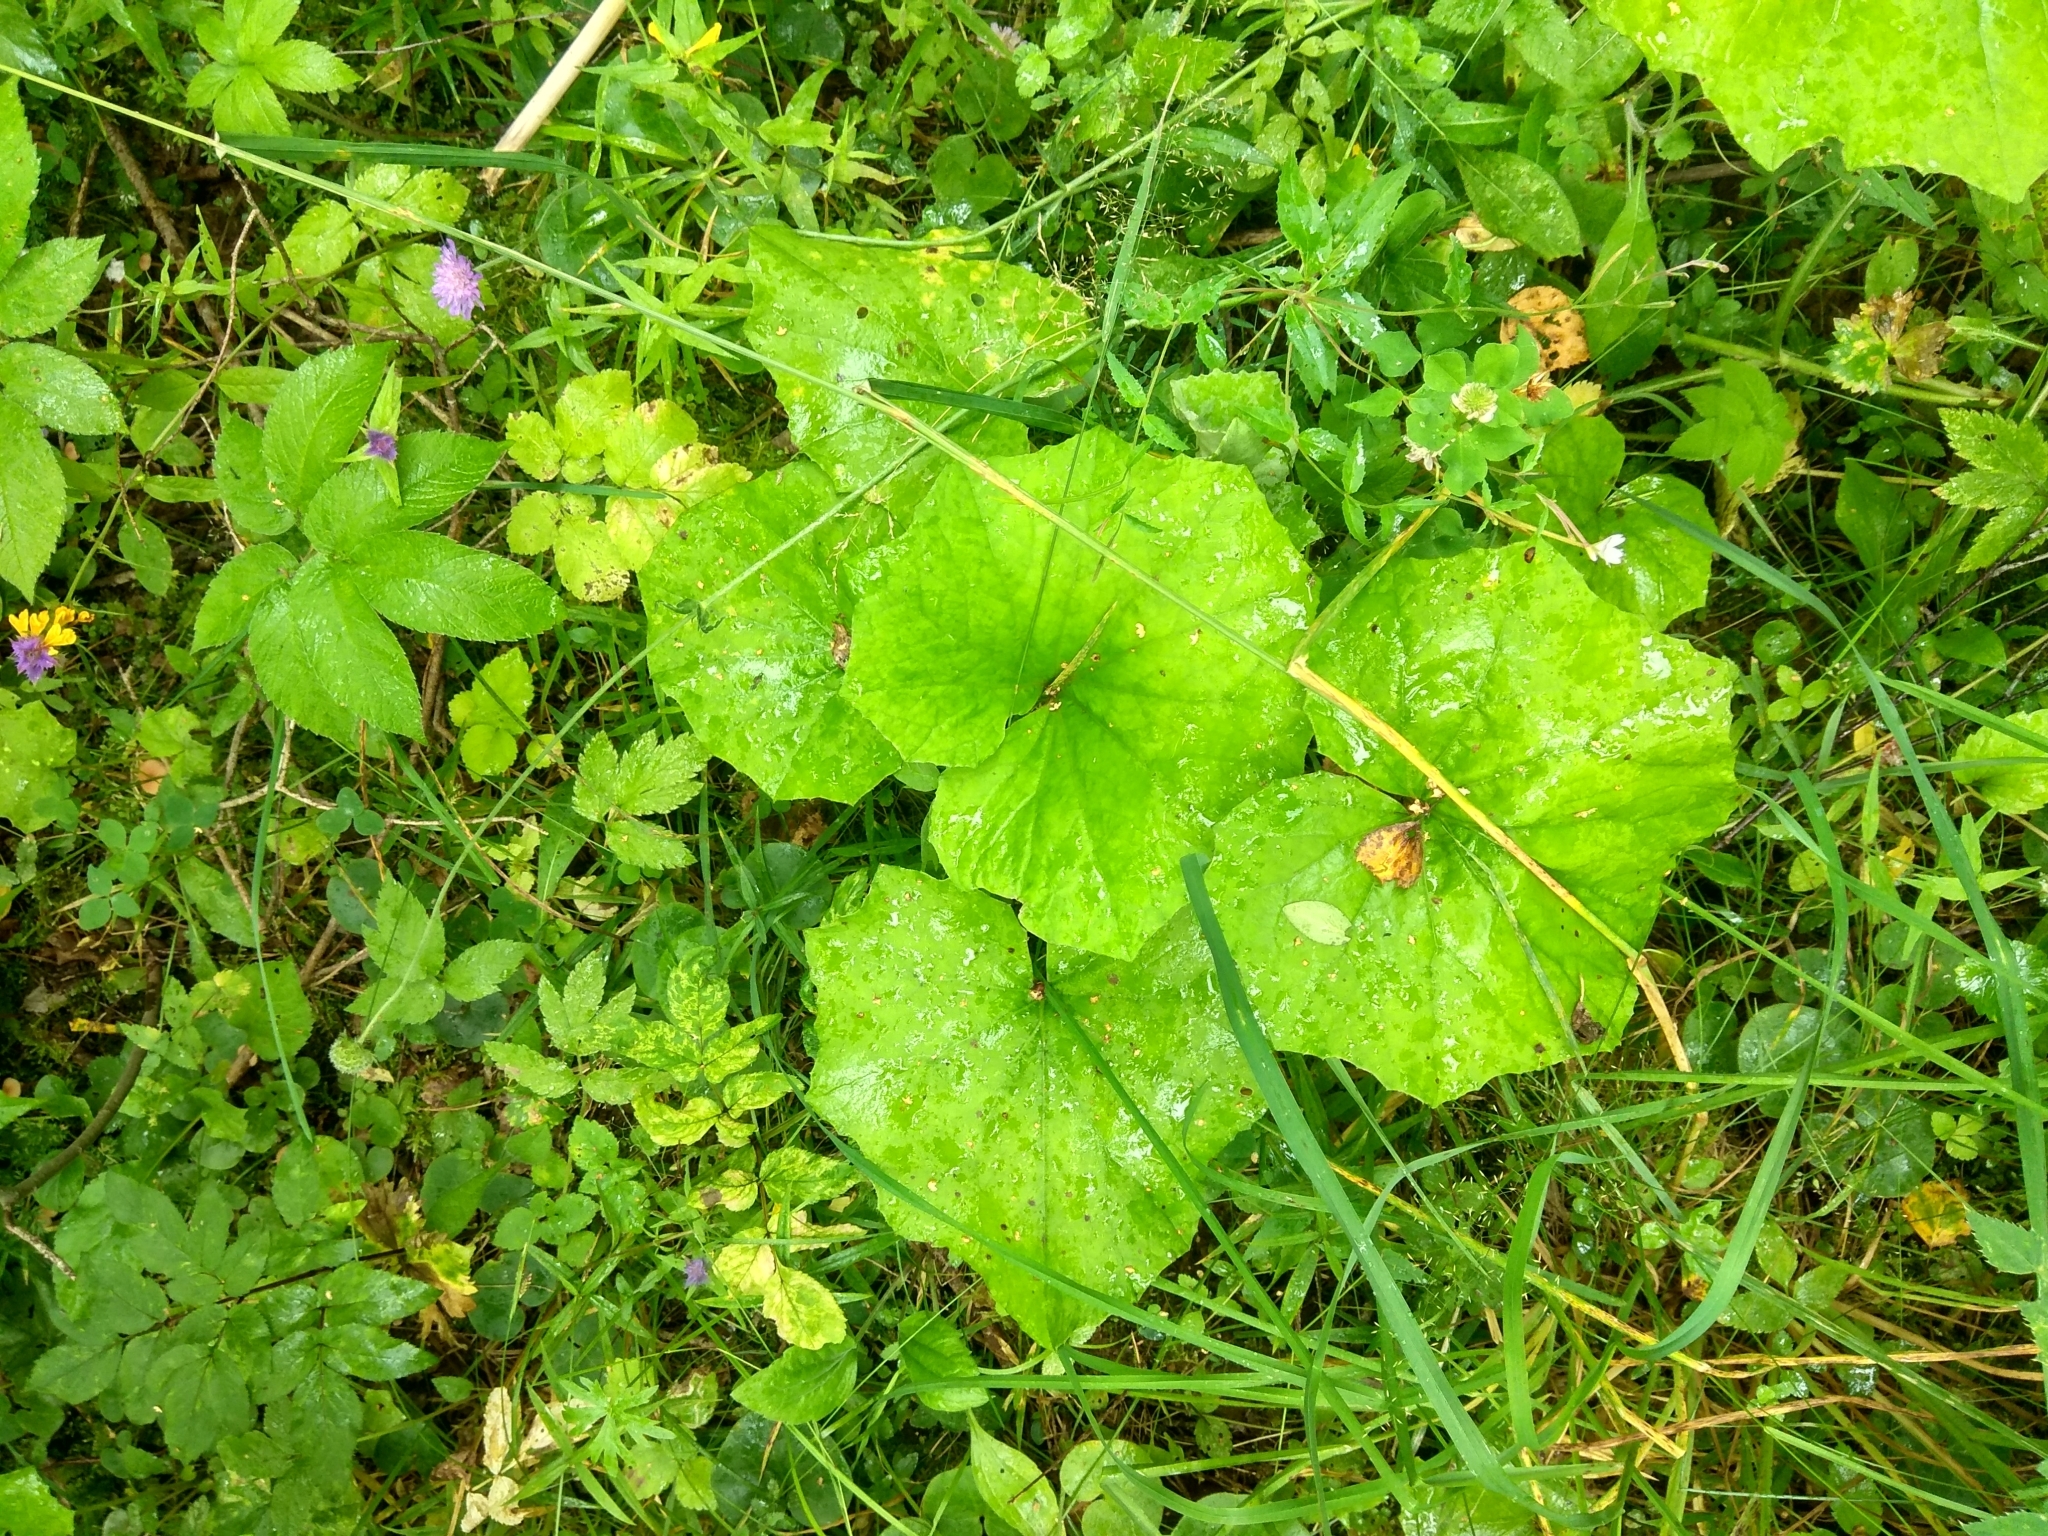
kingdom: Plantae
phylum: Tracheophyta
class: Magnoliopsida
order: Asterales
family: Asteraceae
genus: Tussilago
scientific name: Tussilago farfara
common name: Coltsfoot
